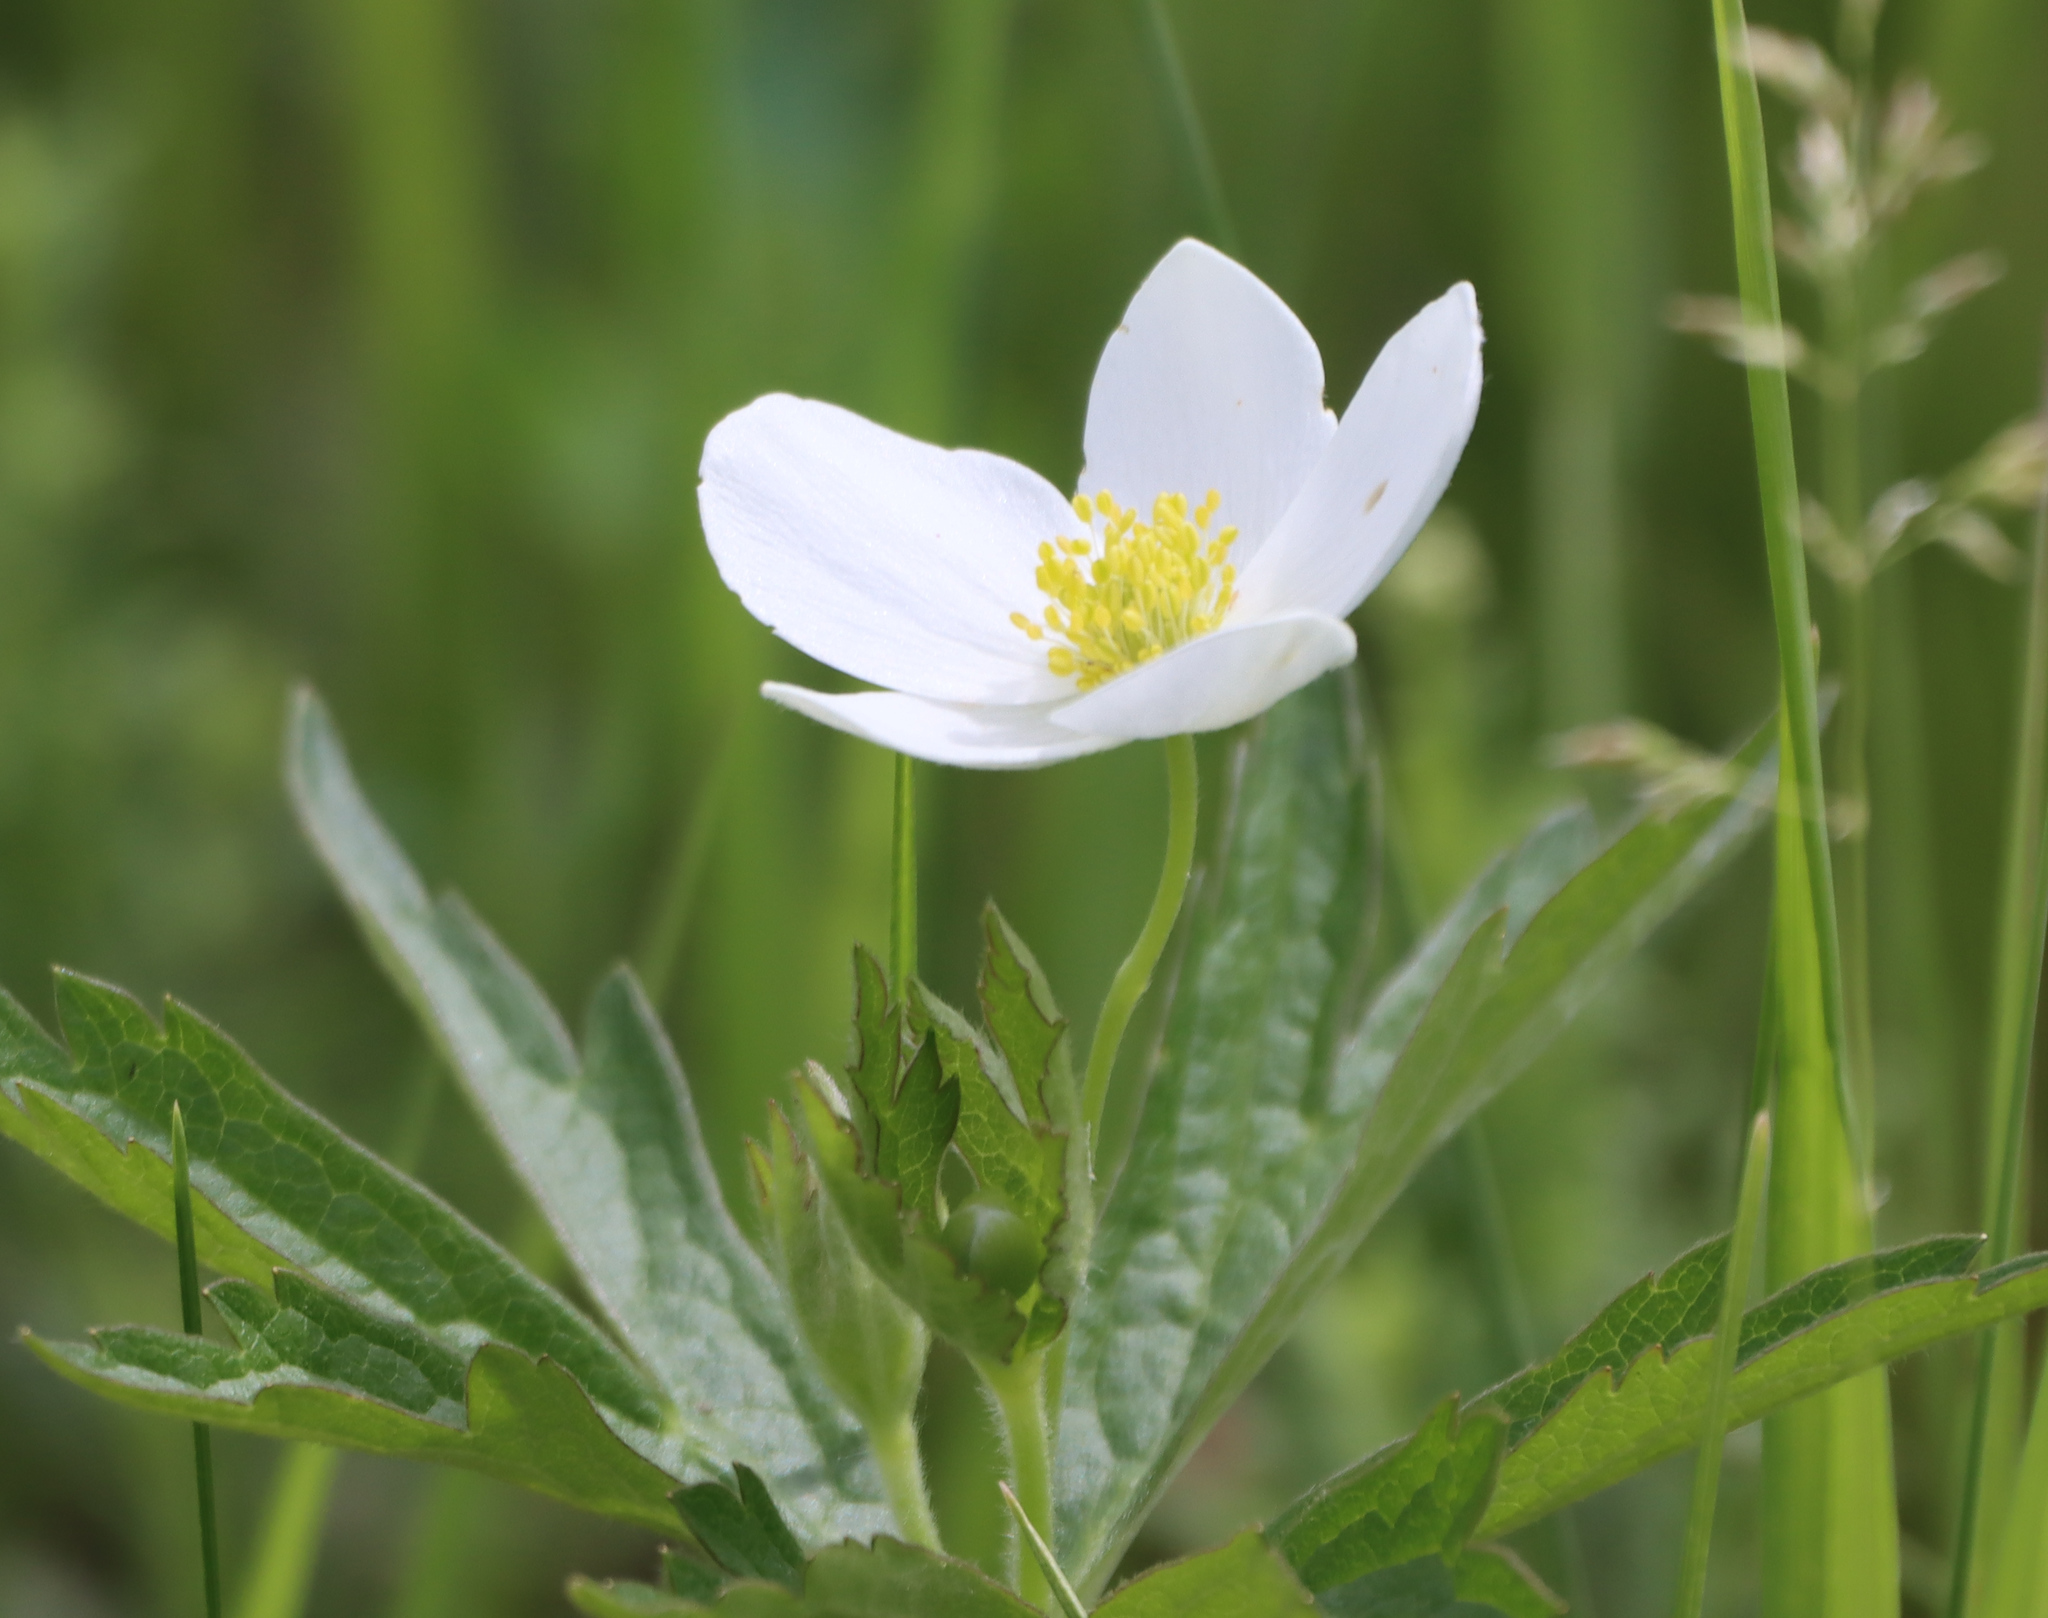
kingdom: Plantae
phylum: Tracheophyta
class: Magnoliopsida
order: Ranunculales
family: Ranunculaceae
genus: Anemonastrum
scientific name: Anemonastrum canadense
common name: Canada anemone
